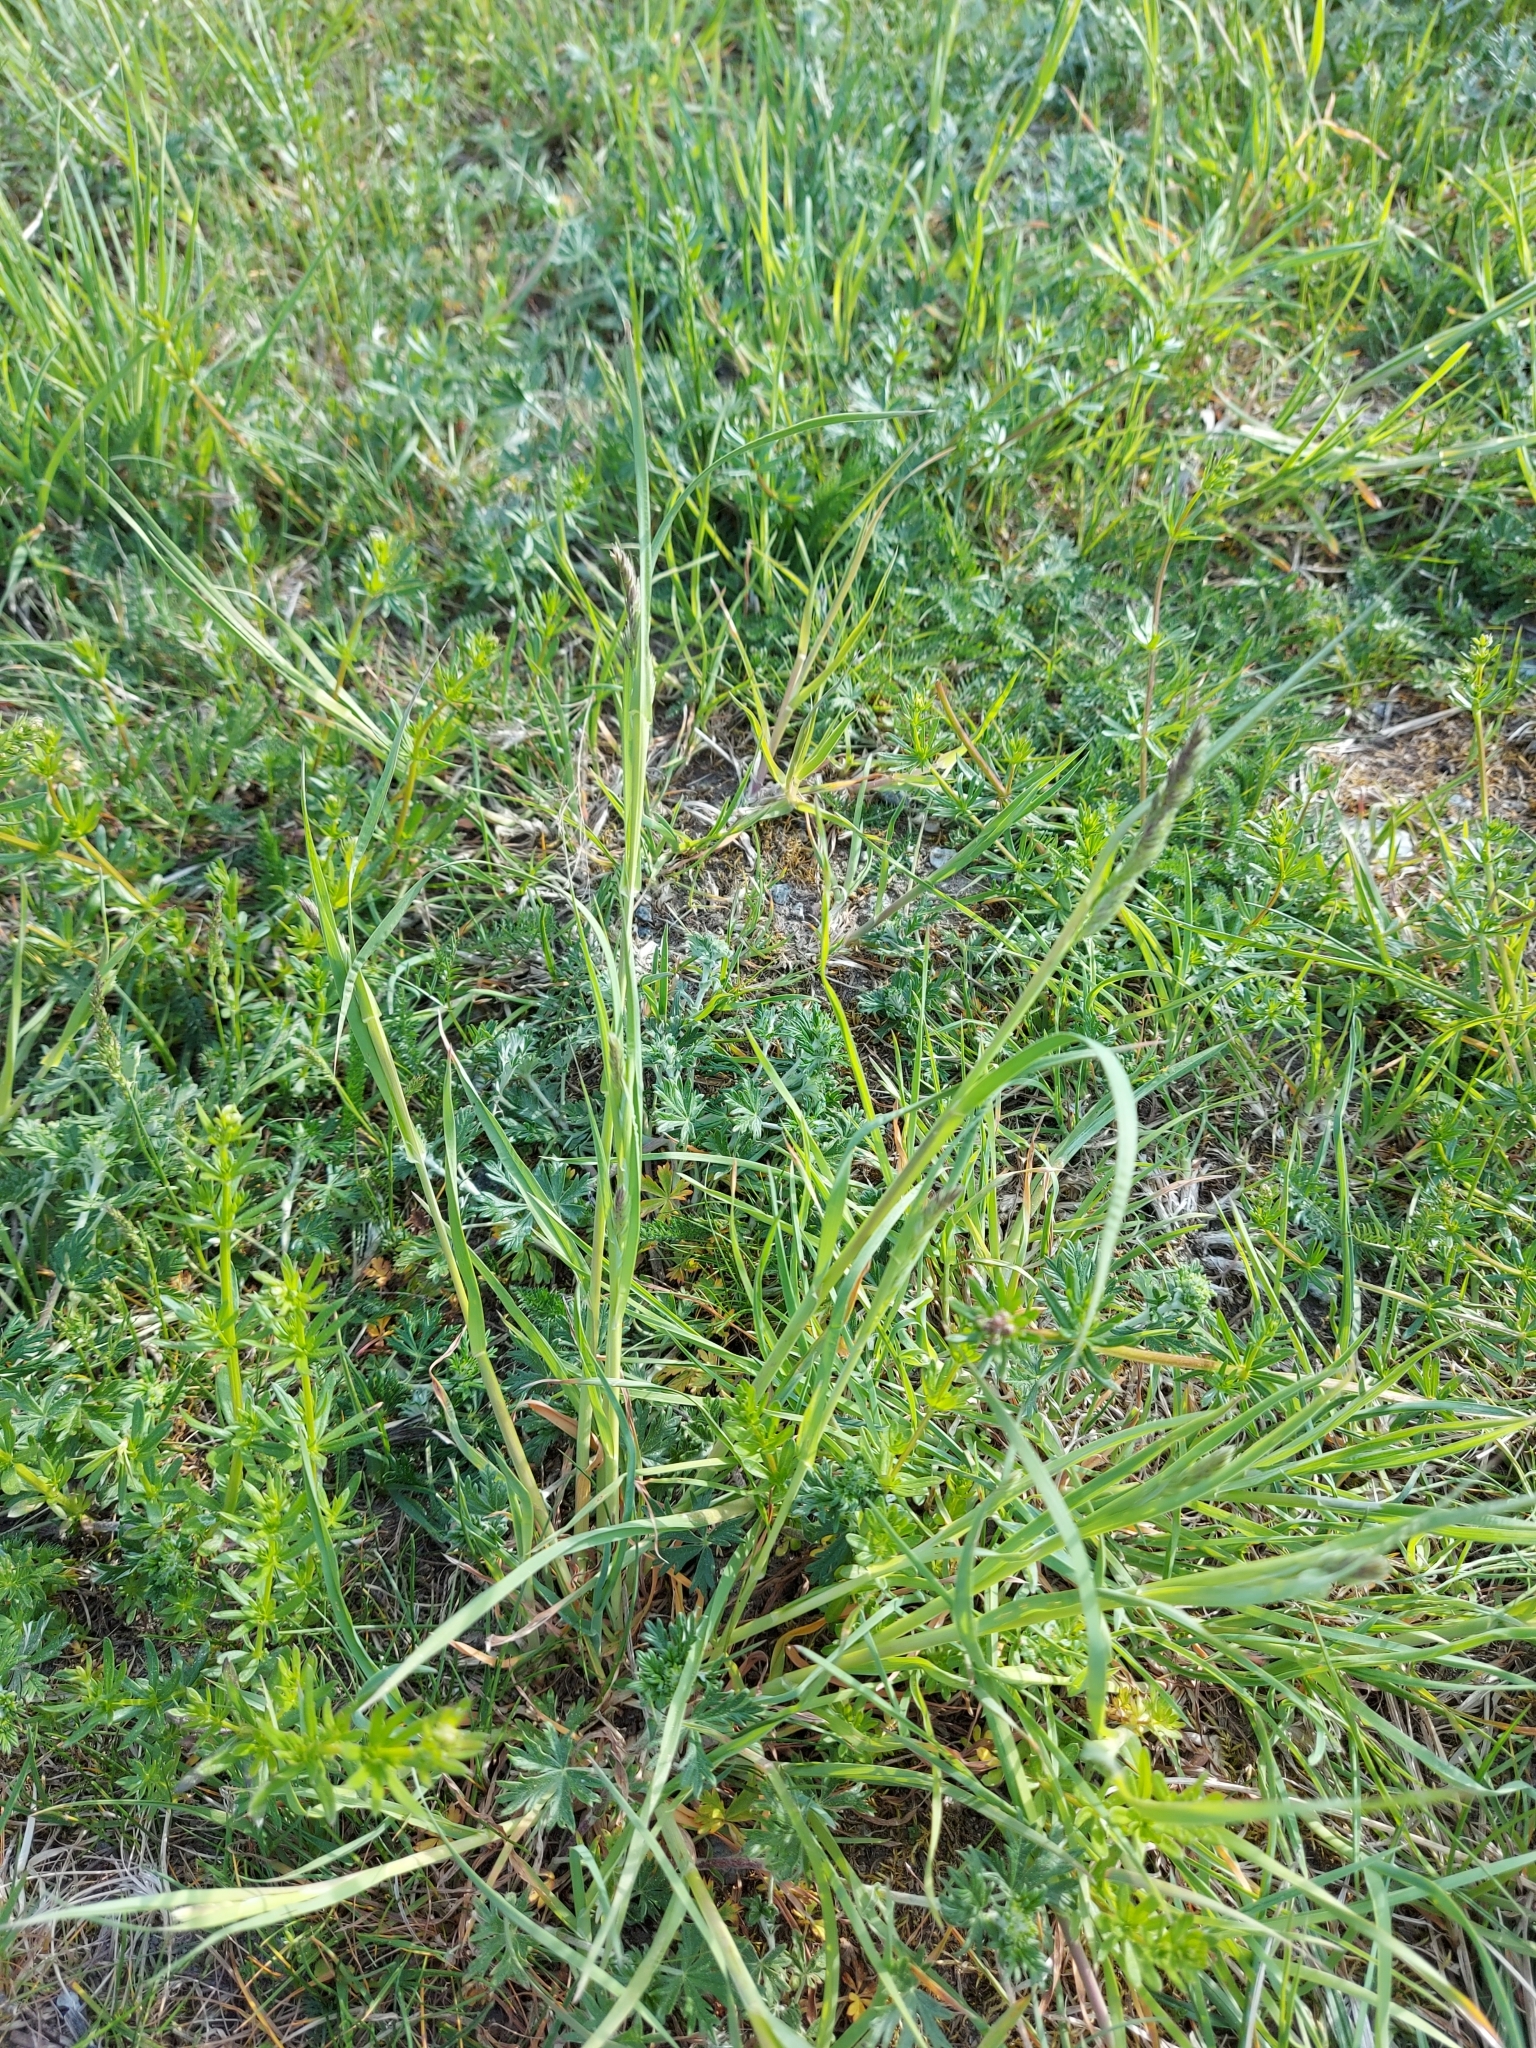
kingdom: Plantae
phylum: Tracheophyta
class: Liliopsida
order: Poales
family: Poaceae
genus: Dactylis
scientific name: Dactylis glomerata
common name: Orchardgrass
